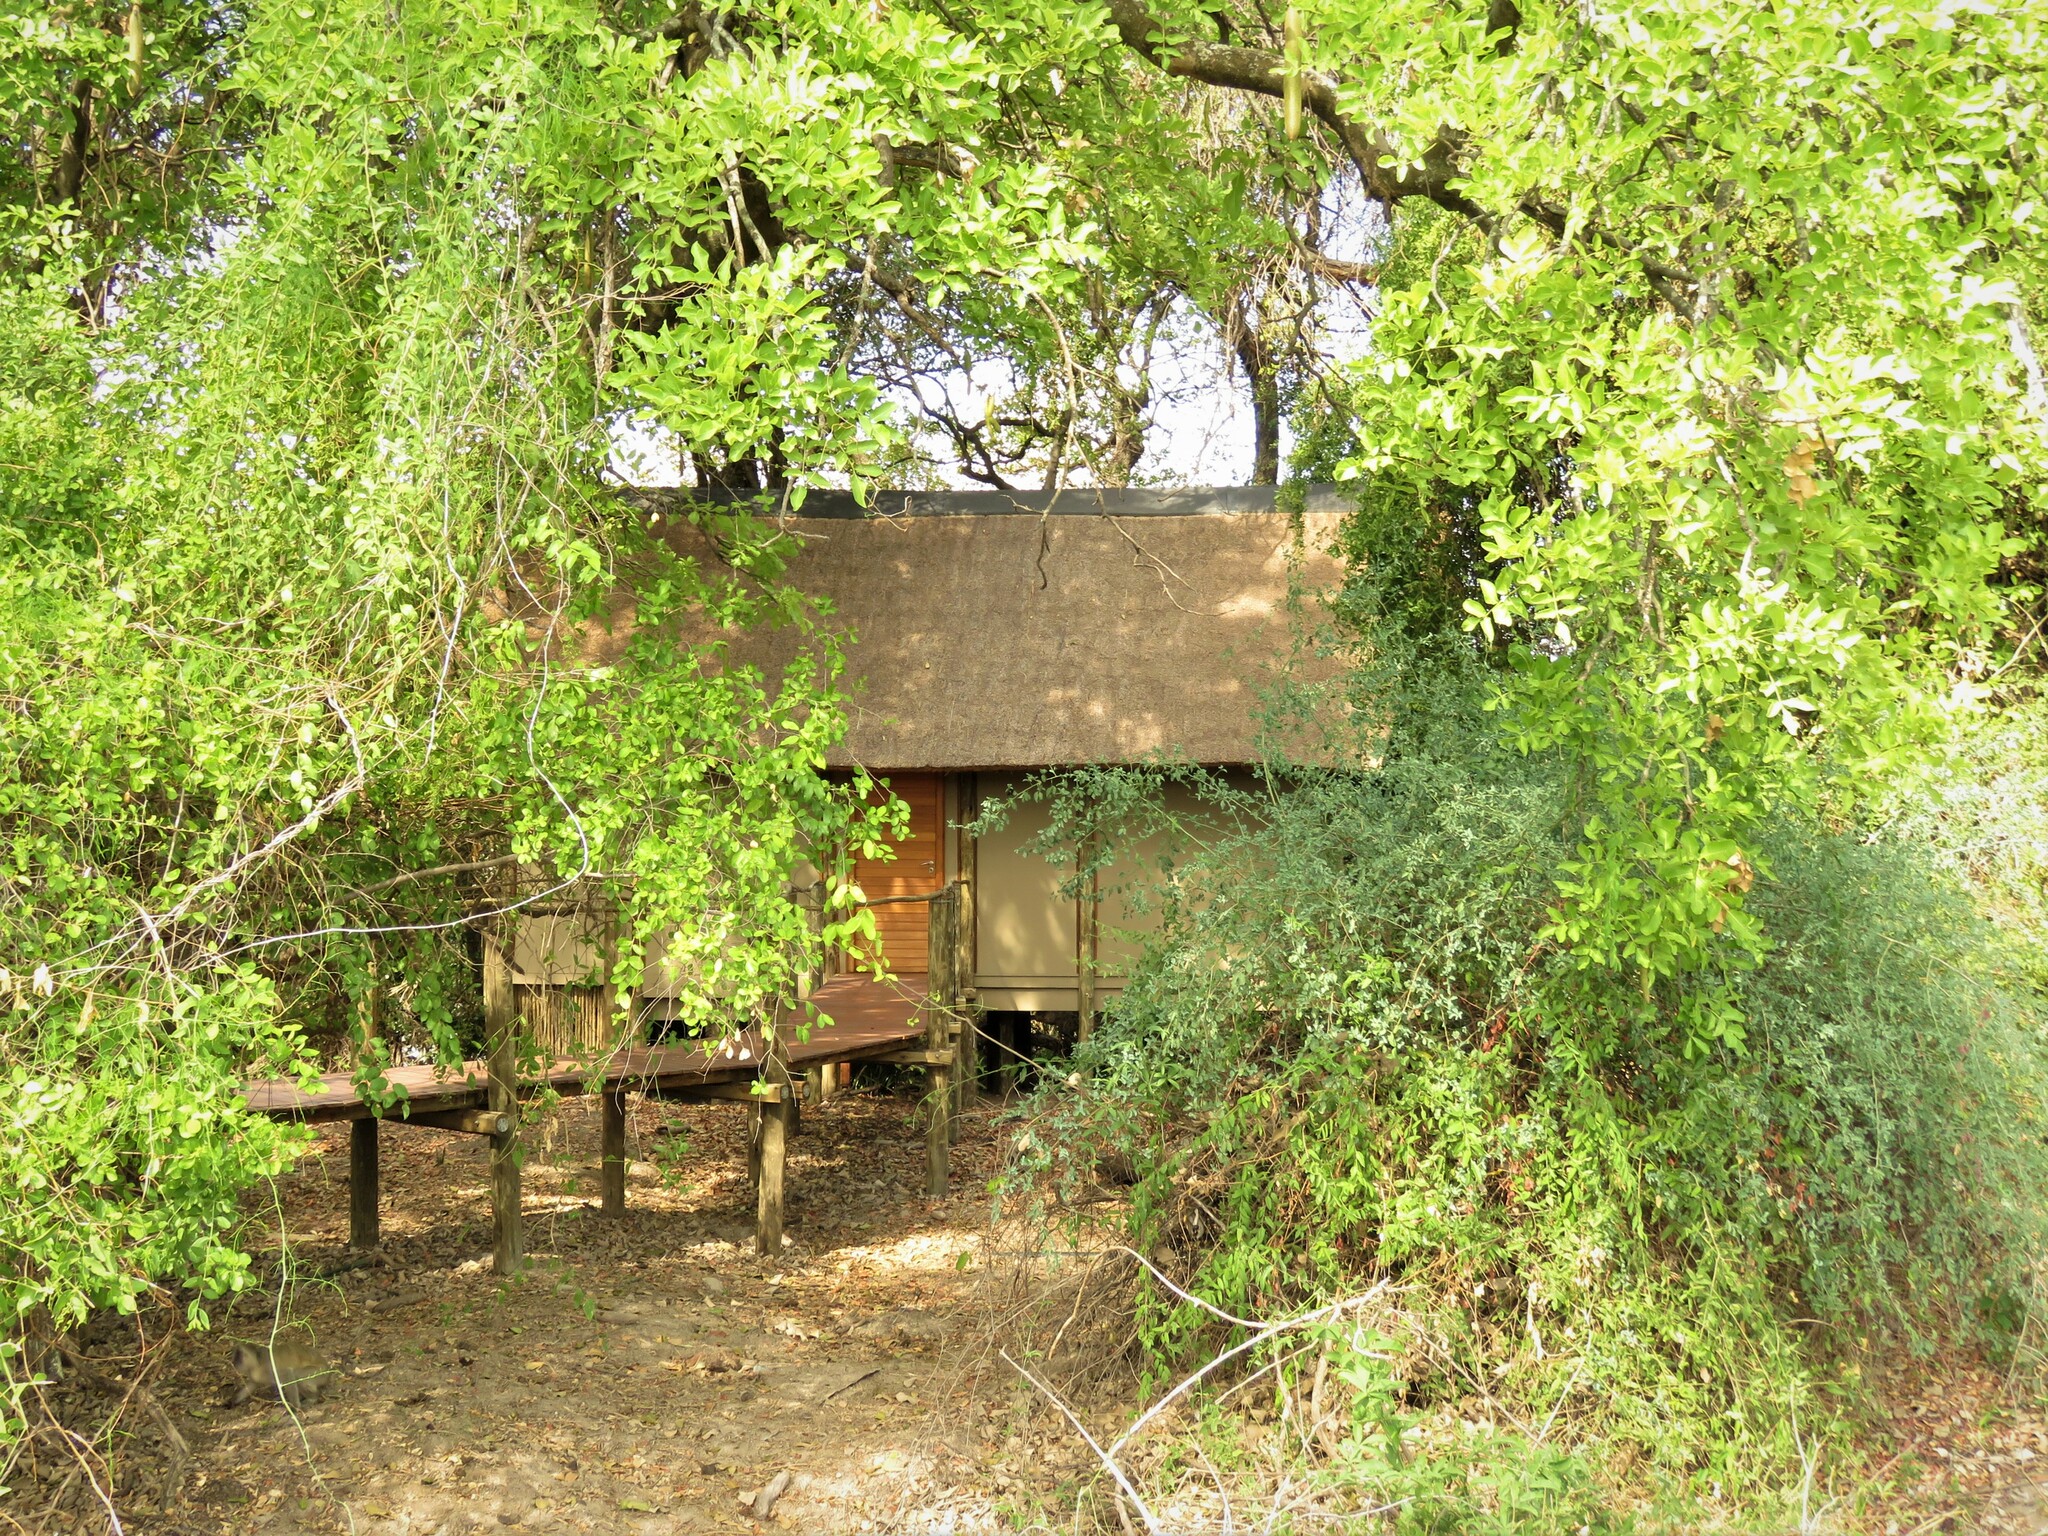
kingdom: Plantae
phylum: Tracheophyta
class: Magnoliopsida
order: Lamiales
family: Bignoniaceae
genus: Kigelia
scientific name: Kigelia africana
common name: Sausage tree
